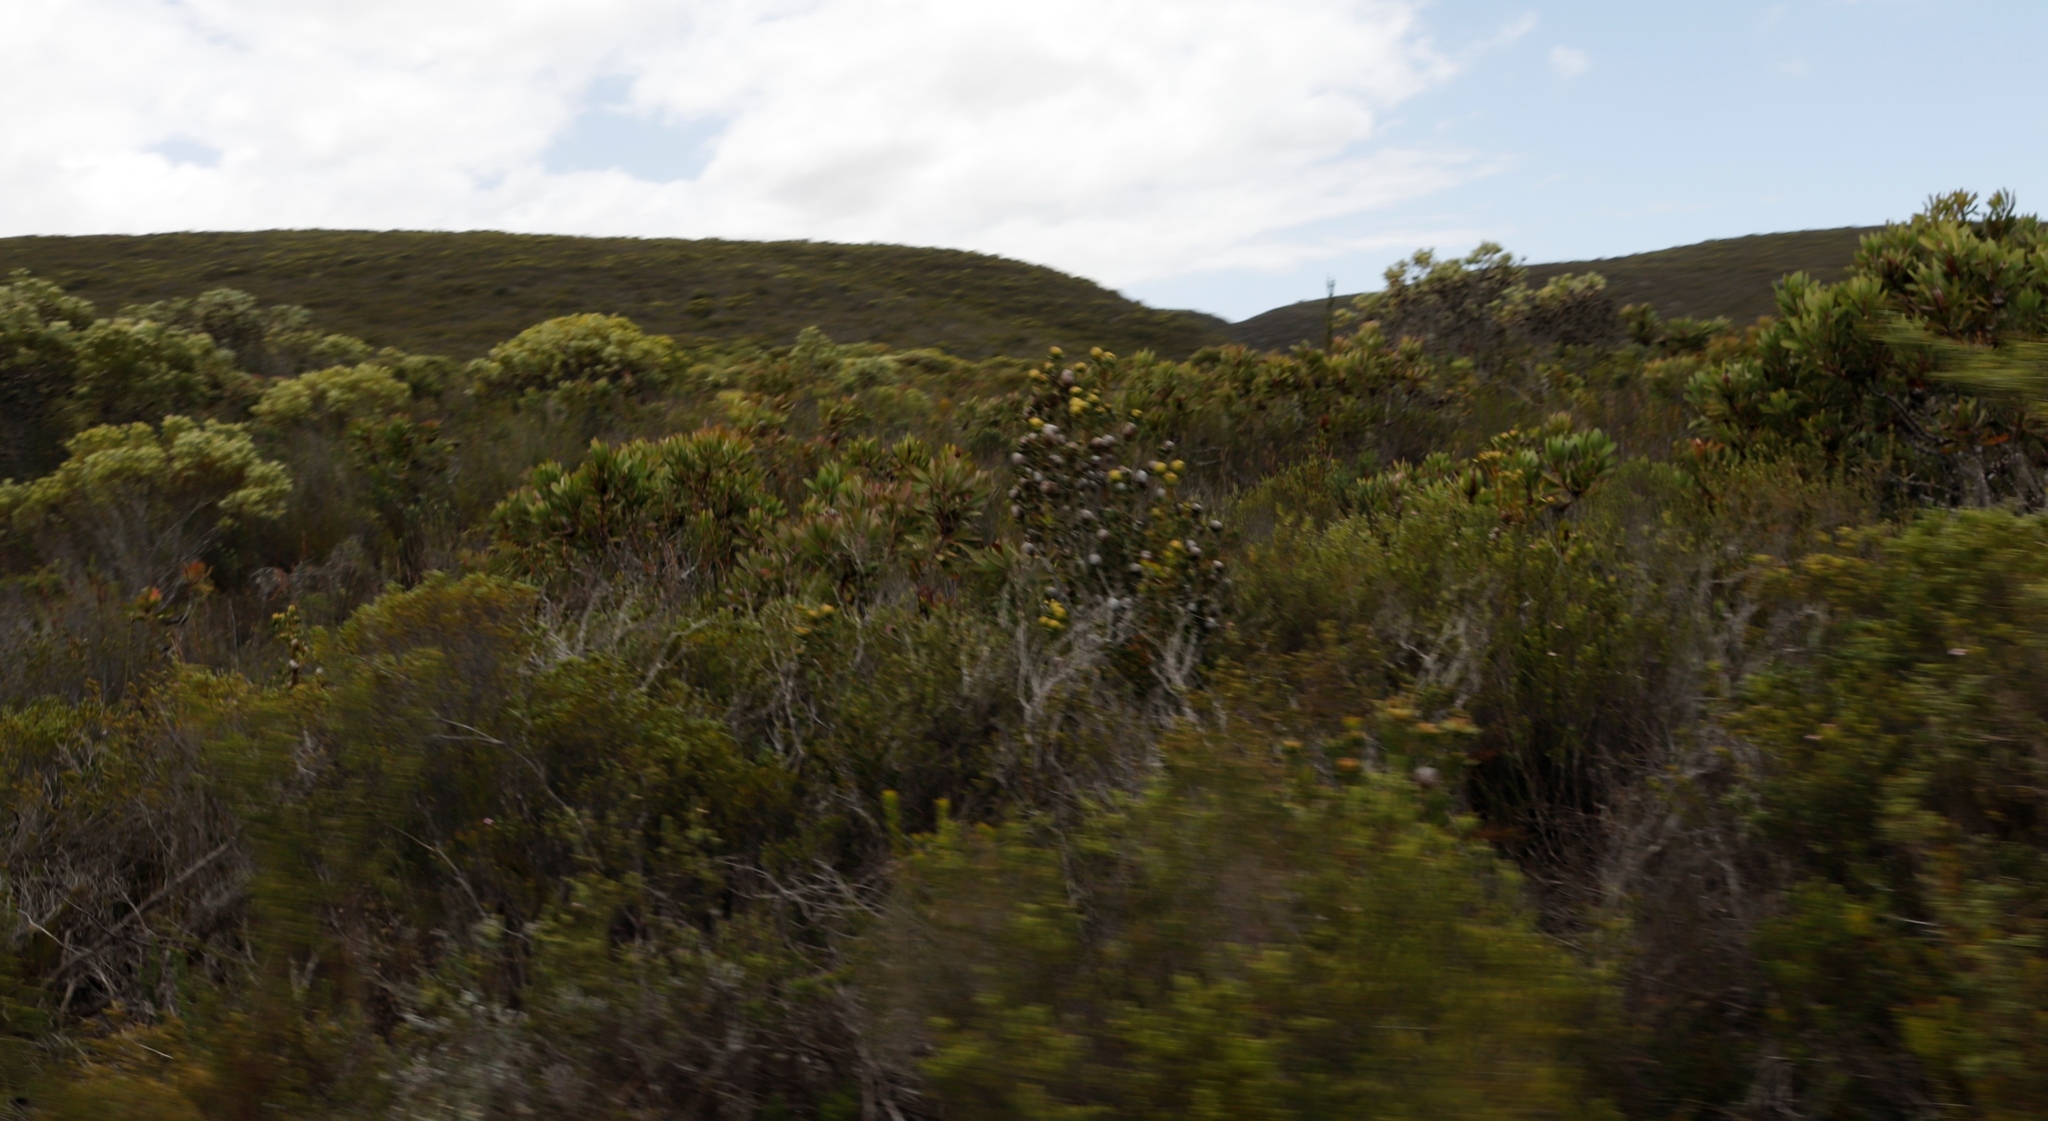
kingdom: Plantae
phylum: Tracheophyta
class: Magnoliopsida
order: Proteales
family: Proteaceae
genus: Leucadendron
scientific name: Leucadendron muirii
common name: Silver-ball conebush
